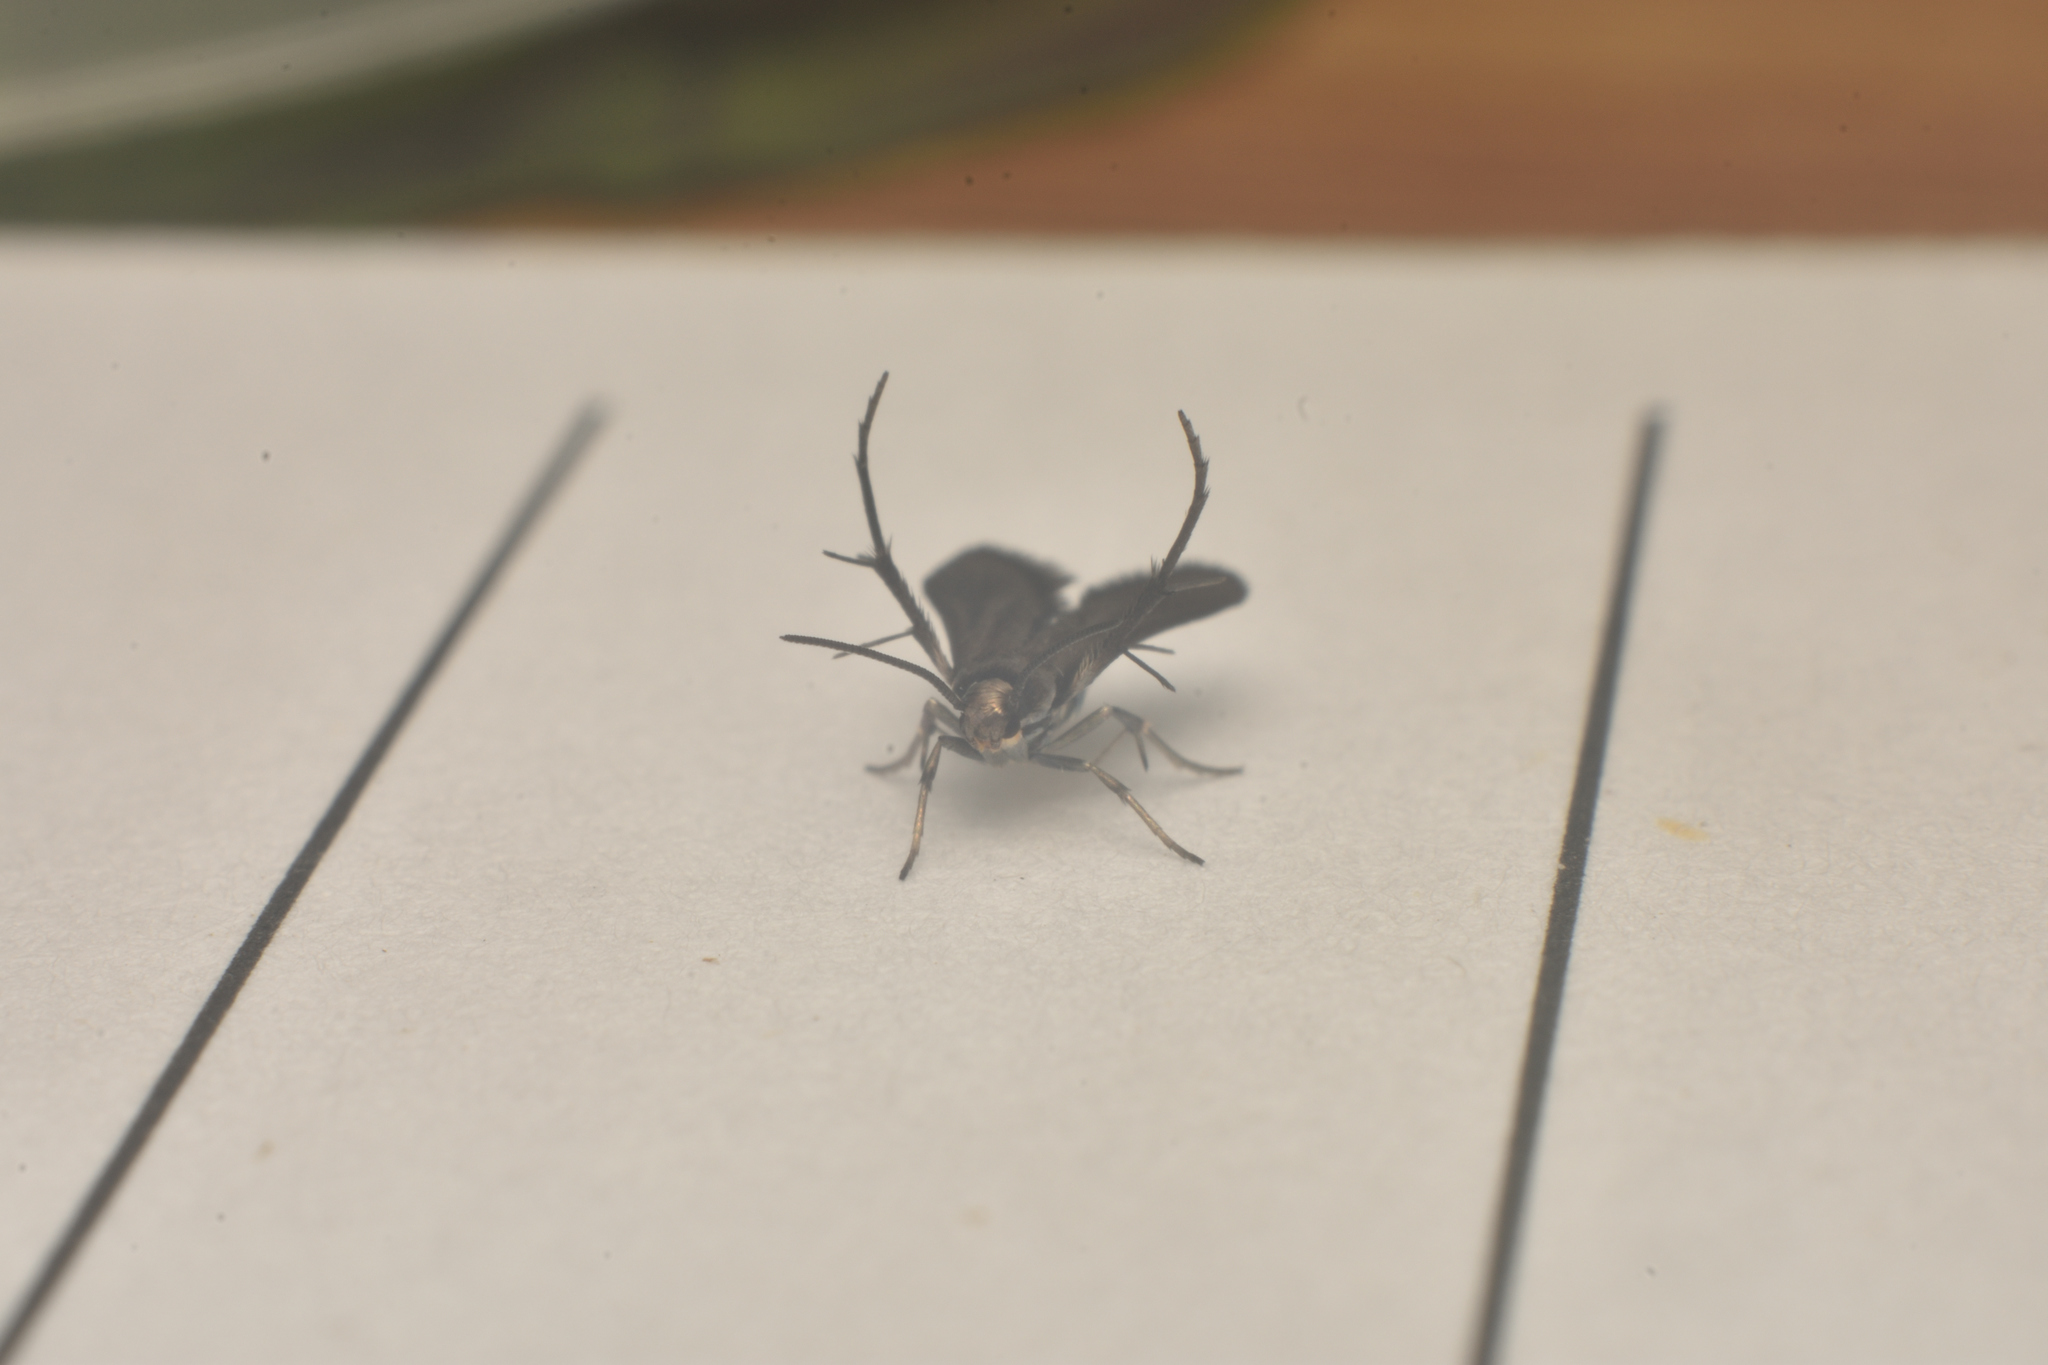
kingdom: Animalia
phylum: Arthropoda
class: Insecta
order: Lepidoptera
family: Schreckensteiniidae
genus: Schreckensteinia
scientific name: Schreckensteinia
